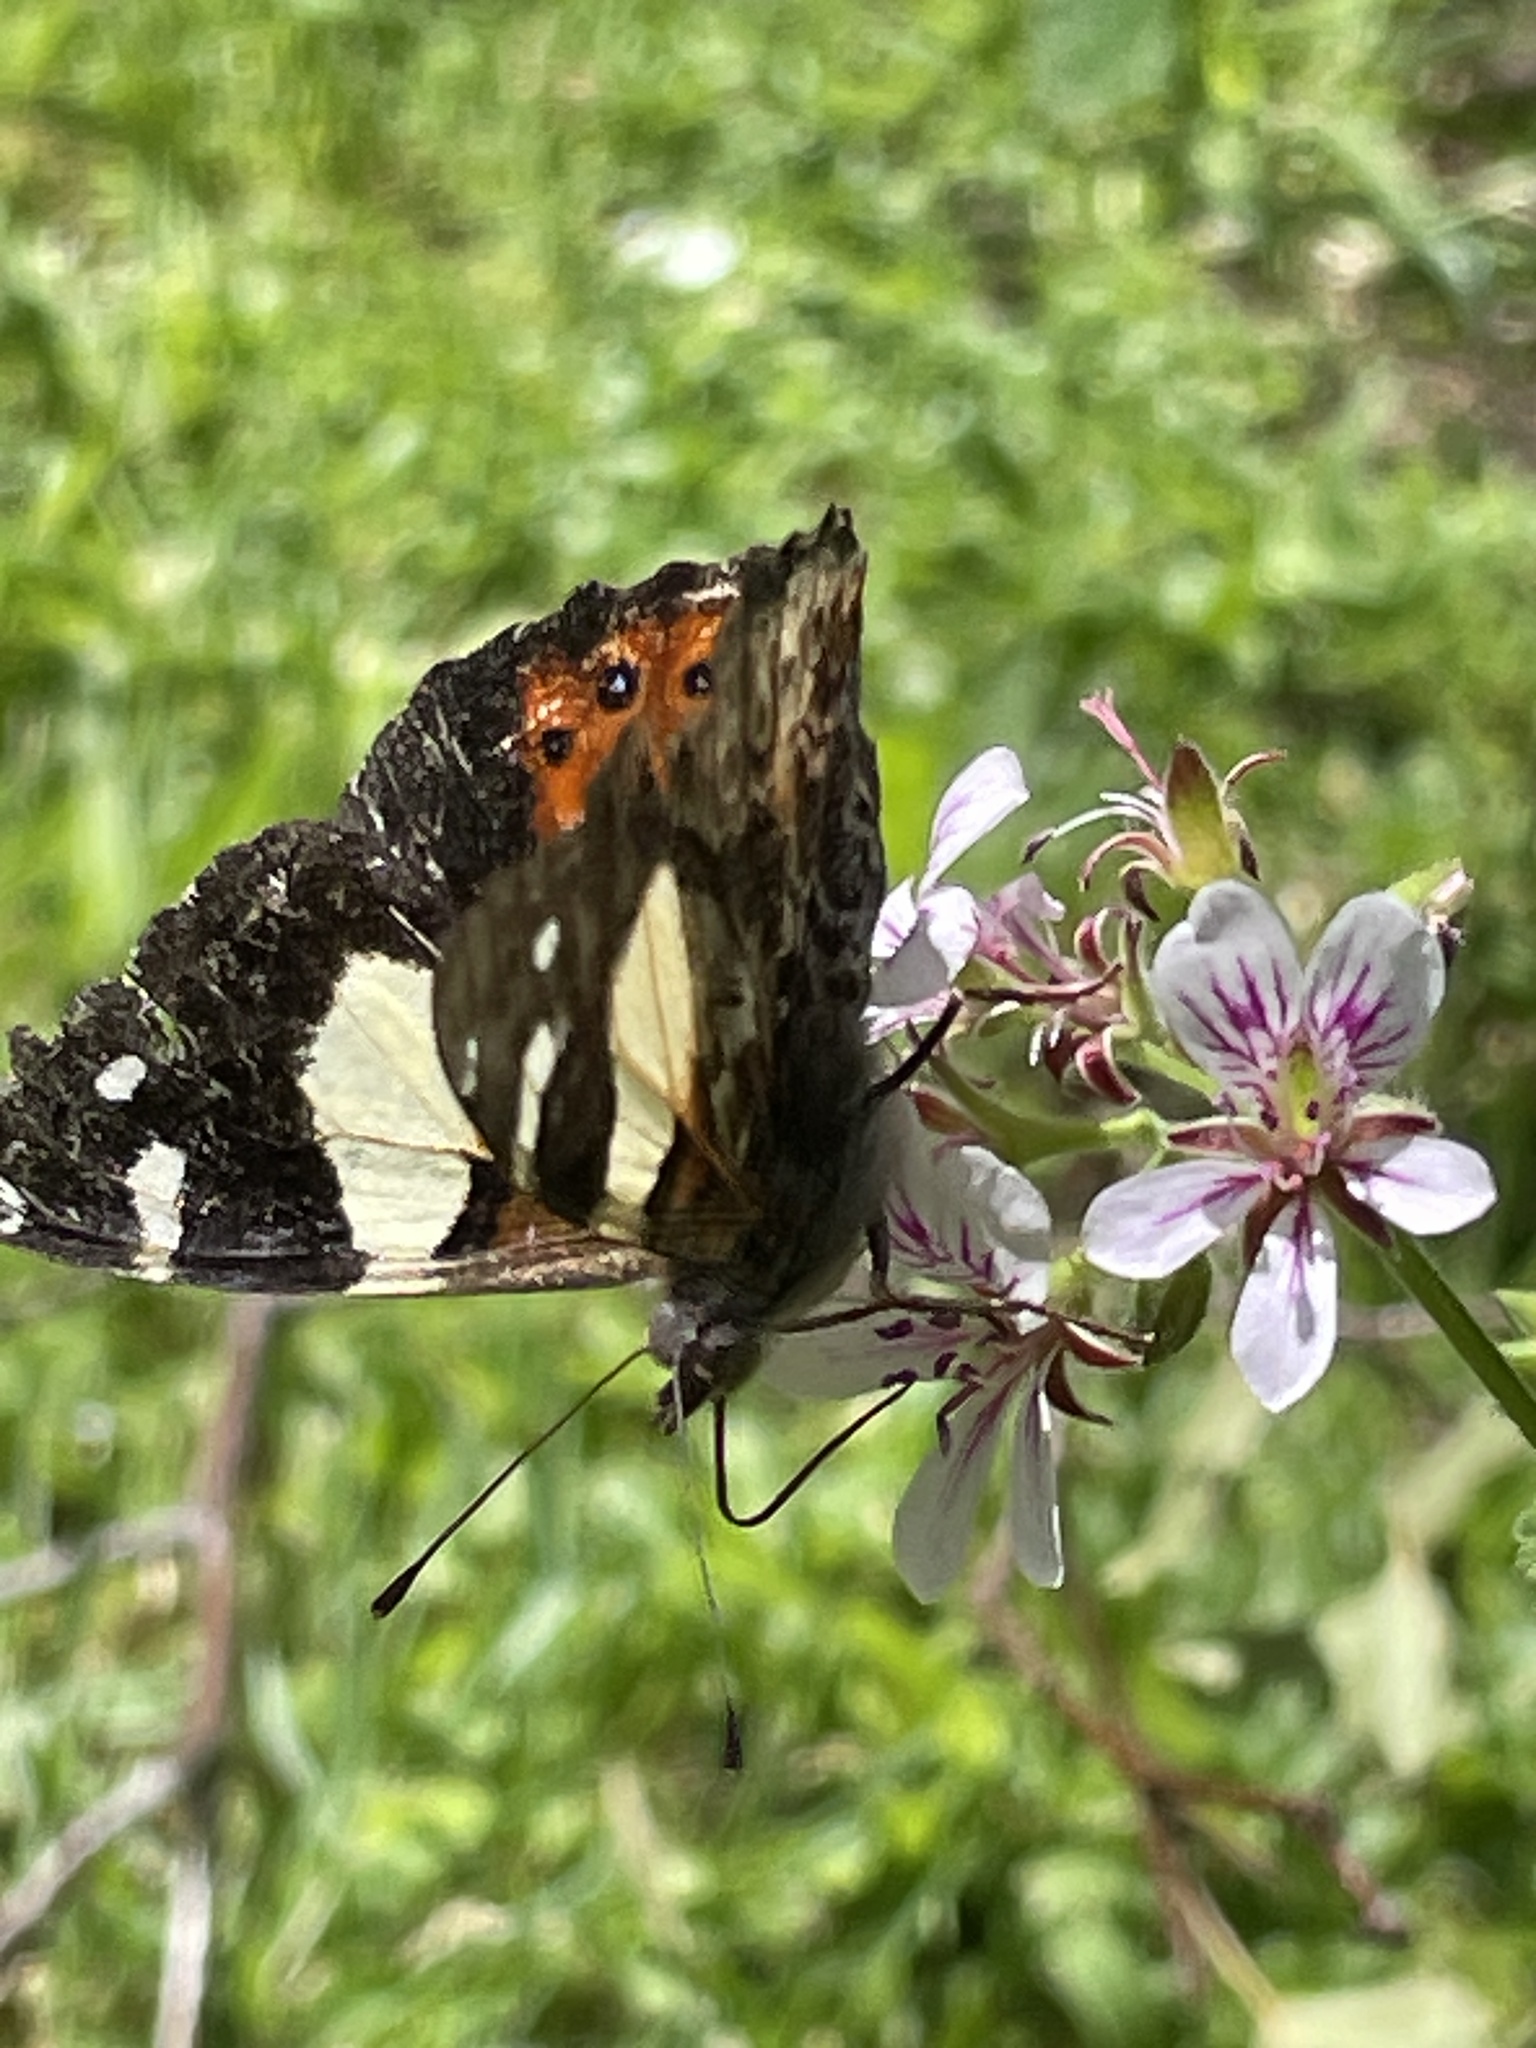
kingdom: Animalia
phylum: Arthropoda
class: Insecta
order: Lepidoptera
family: Nymphalidae
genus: Vanessa
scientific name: Vanessa itea
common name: Yellow admiral
